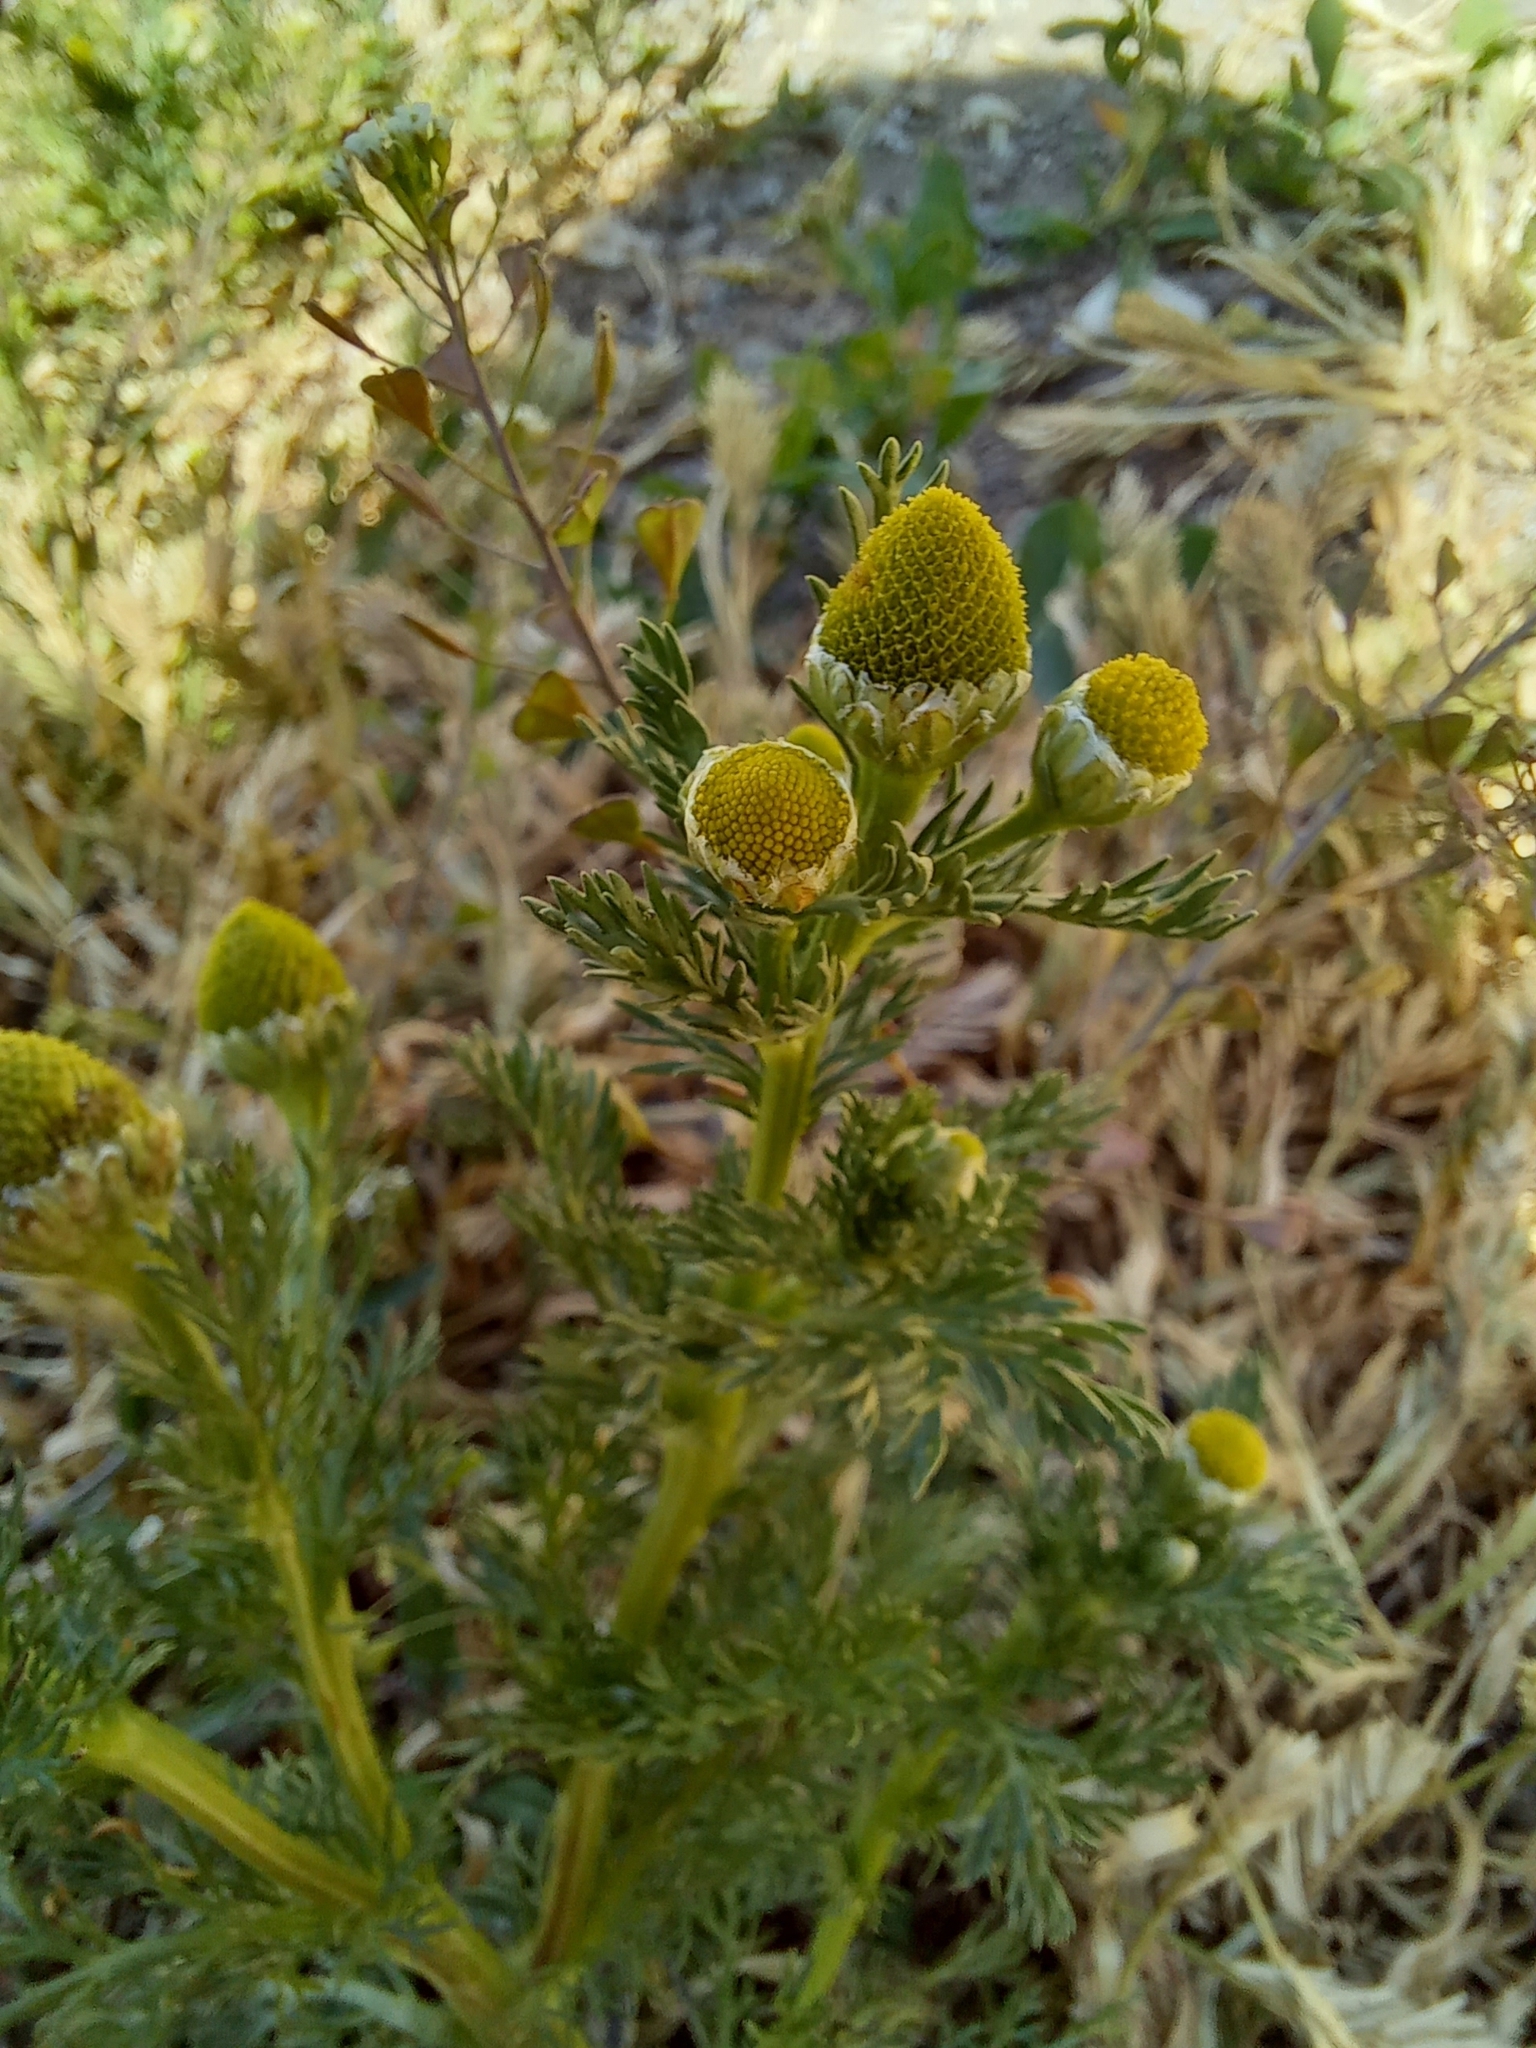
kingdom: Plantae
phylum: Tracheophyta
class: Magnoliopsida
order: Asterales
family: Asteraceae
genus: Matricaria
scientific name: Matricaria discoidea
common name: Disc mayweed
